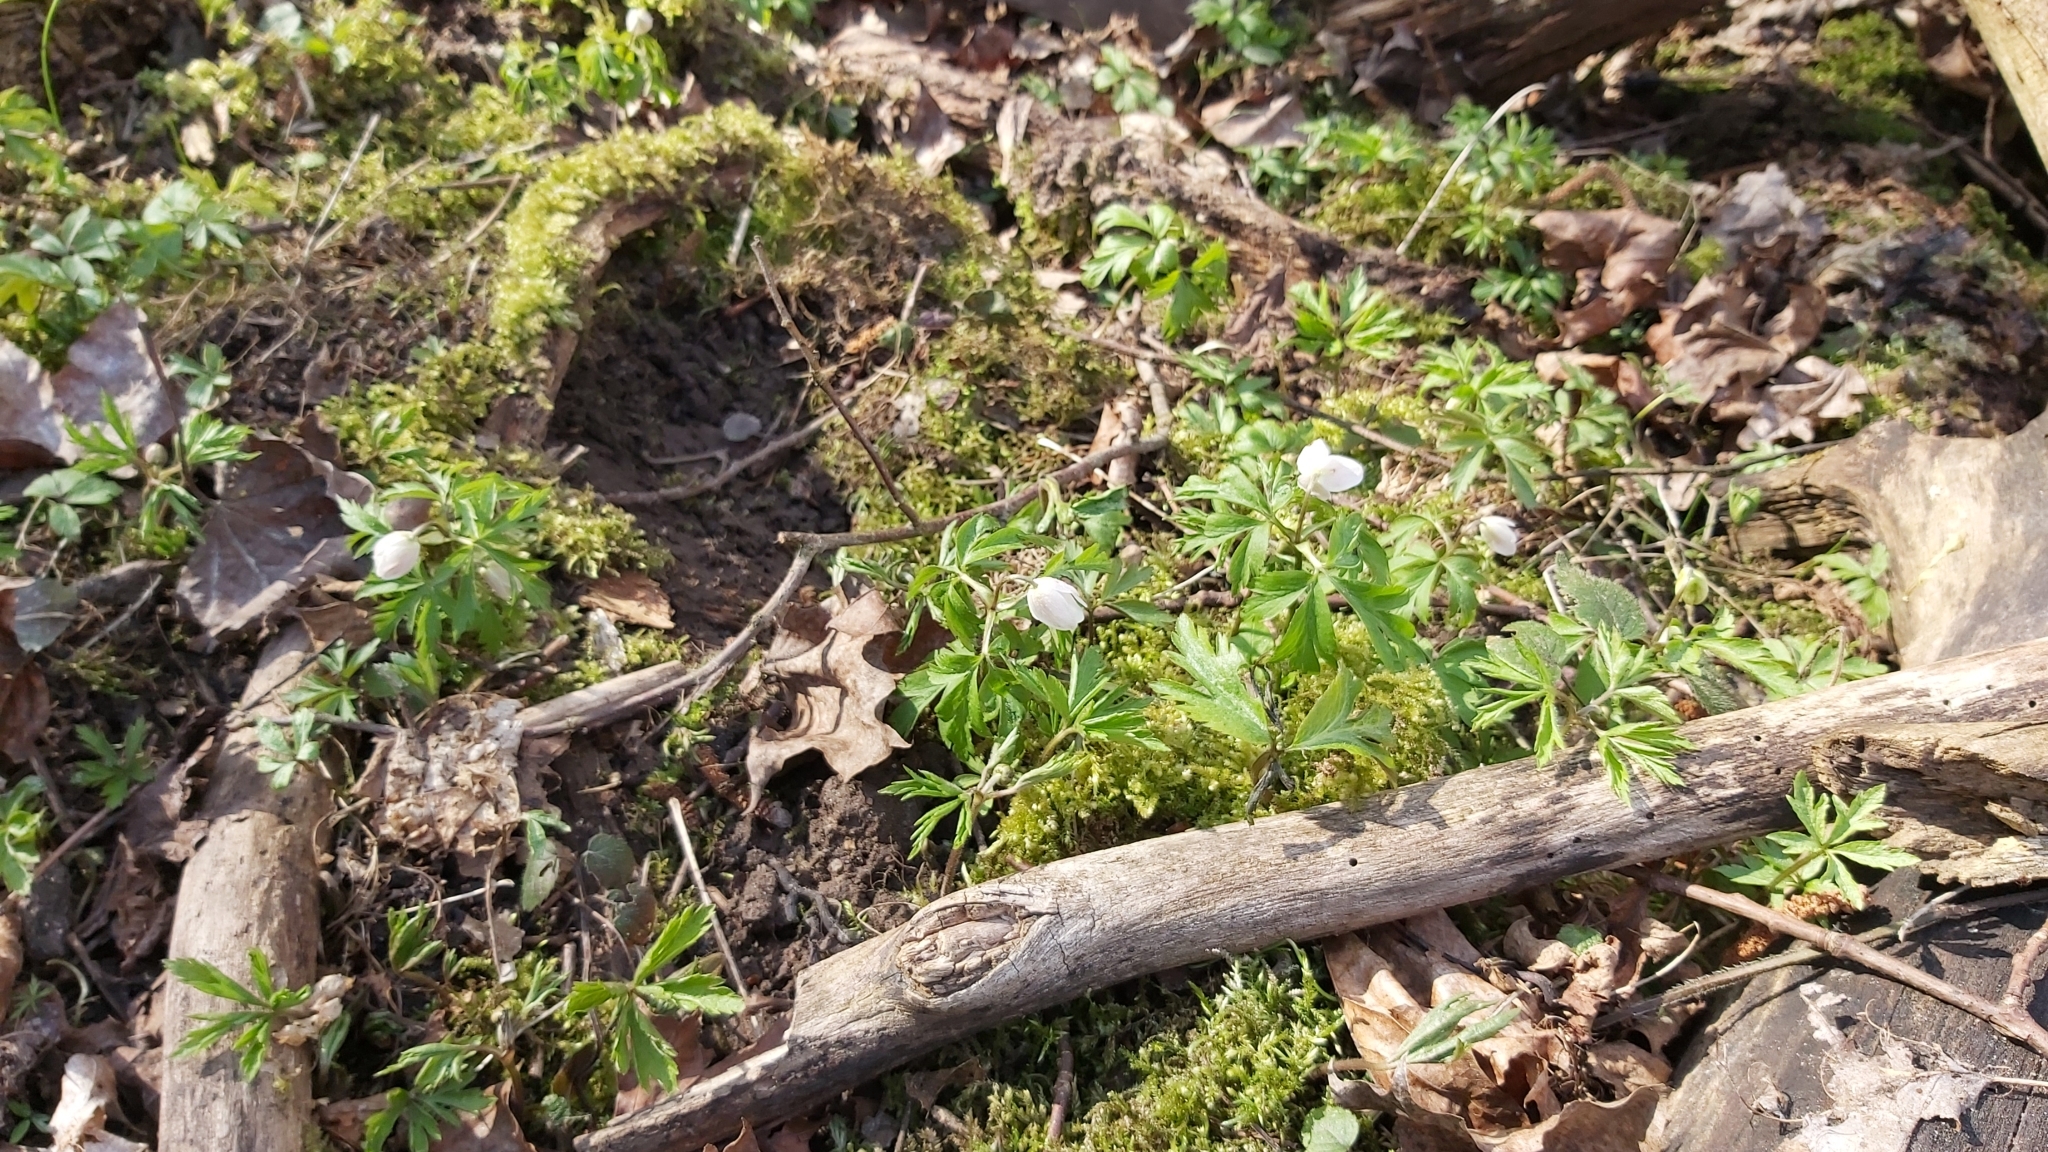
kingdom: Plantae
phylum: Tracheophyta
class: Magnoliopsida
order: Ranunculales
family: Ranunculaceae
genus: Anemone
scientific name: Anemone nemorosa
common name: Wood anemone
